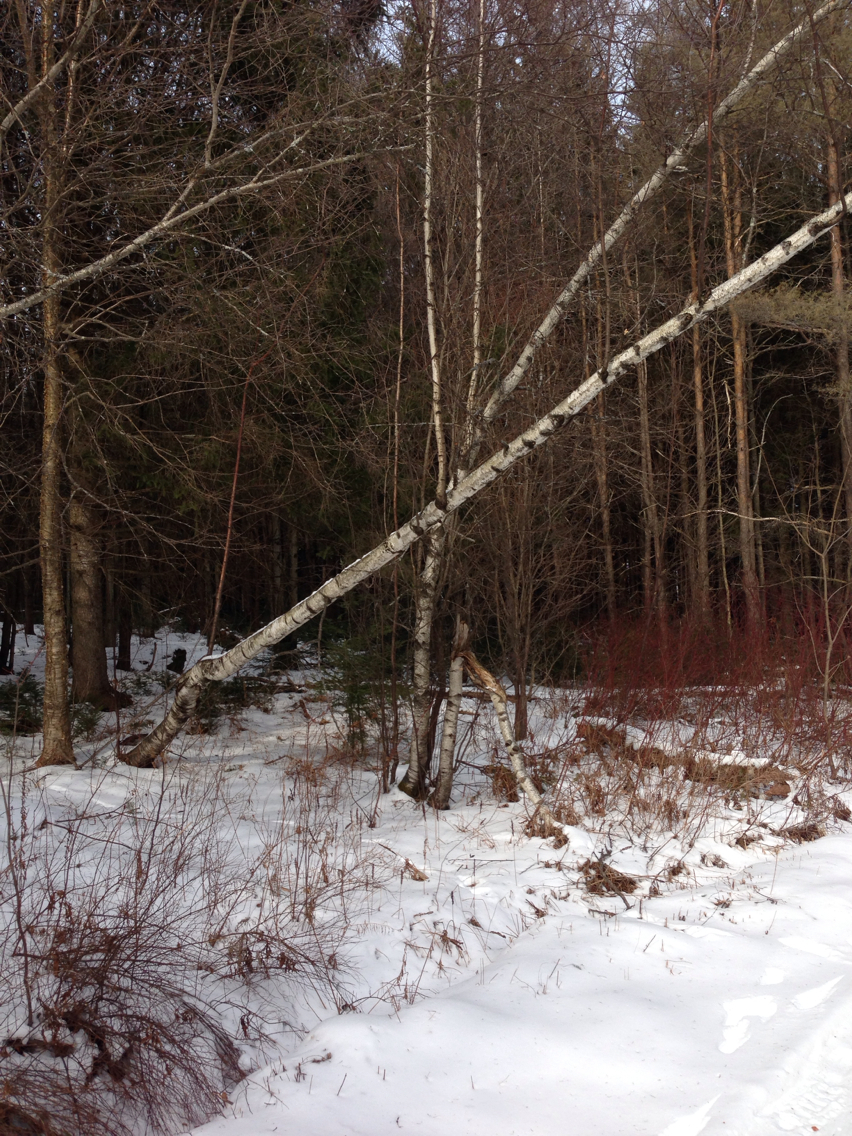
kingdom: Plantae
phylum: Tracheophyta
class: Magnoliopsida
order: Fagales
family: Betulaceae
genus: Betula
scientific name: Betula populifolia
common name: Fire birch
